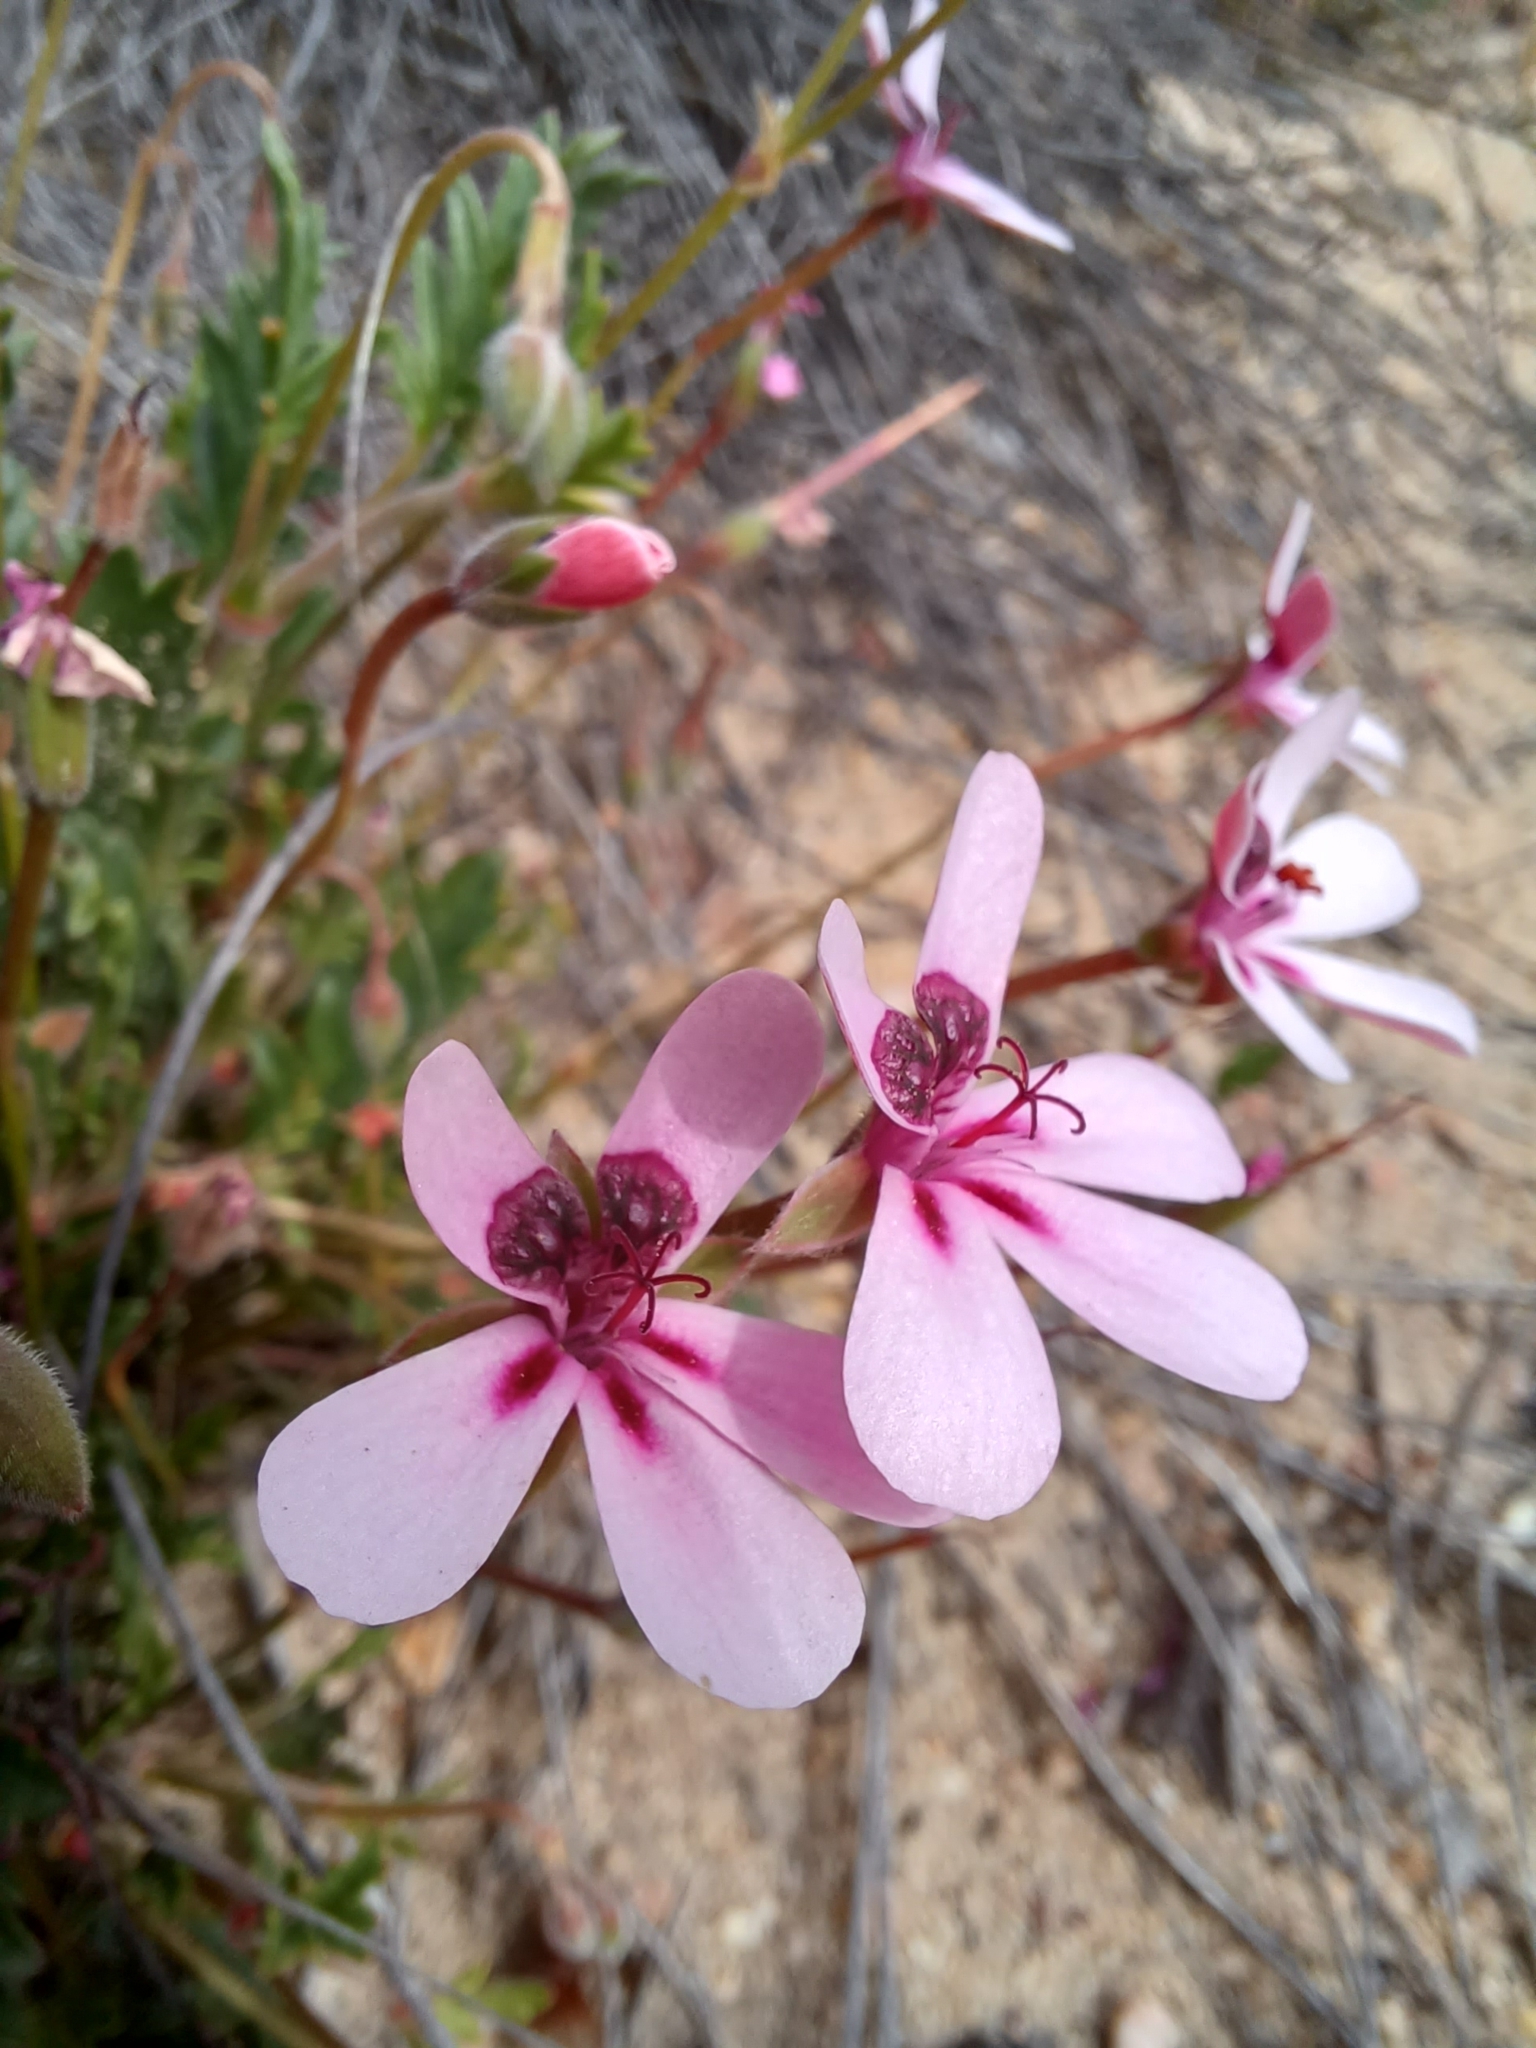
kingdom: Plantae
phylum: Tracheophyta
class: Magnoliopsida
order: Geraniales
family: Geraniaceae
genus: Pelargonium
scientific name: Pelargonium capillare
